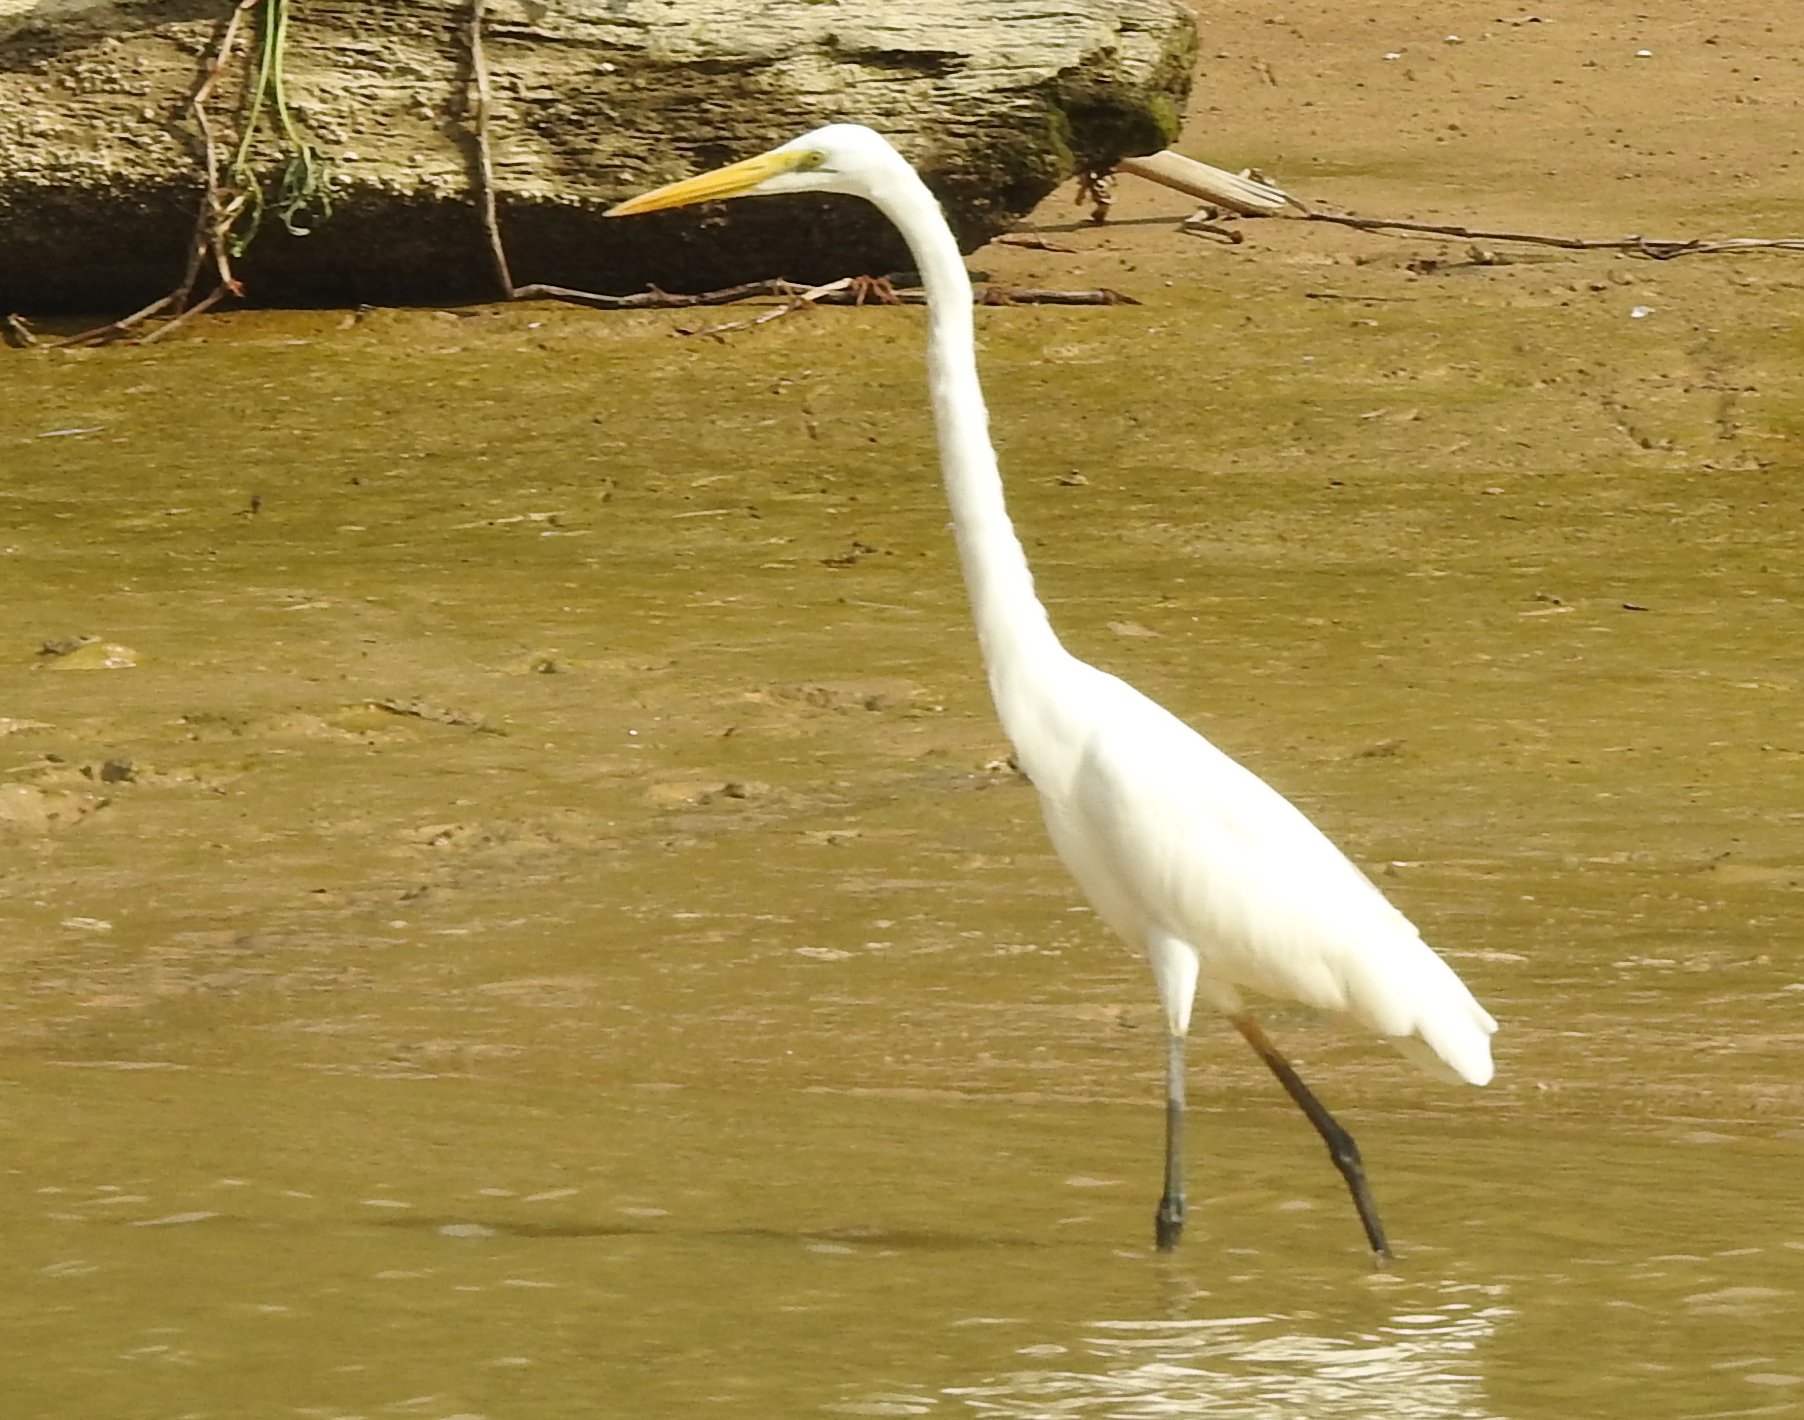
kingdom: Animalia
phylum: Chordata
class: Aves
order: Pelecaniformes
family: Ardeidae
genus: Ardea
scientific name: Ardea alba
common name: Great egret
